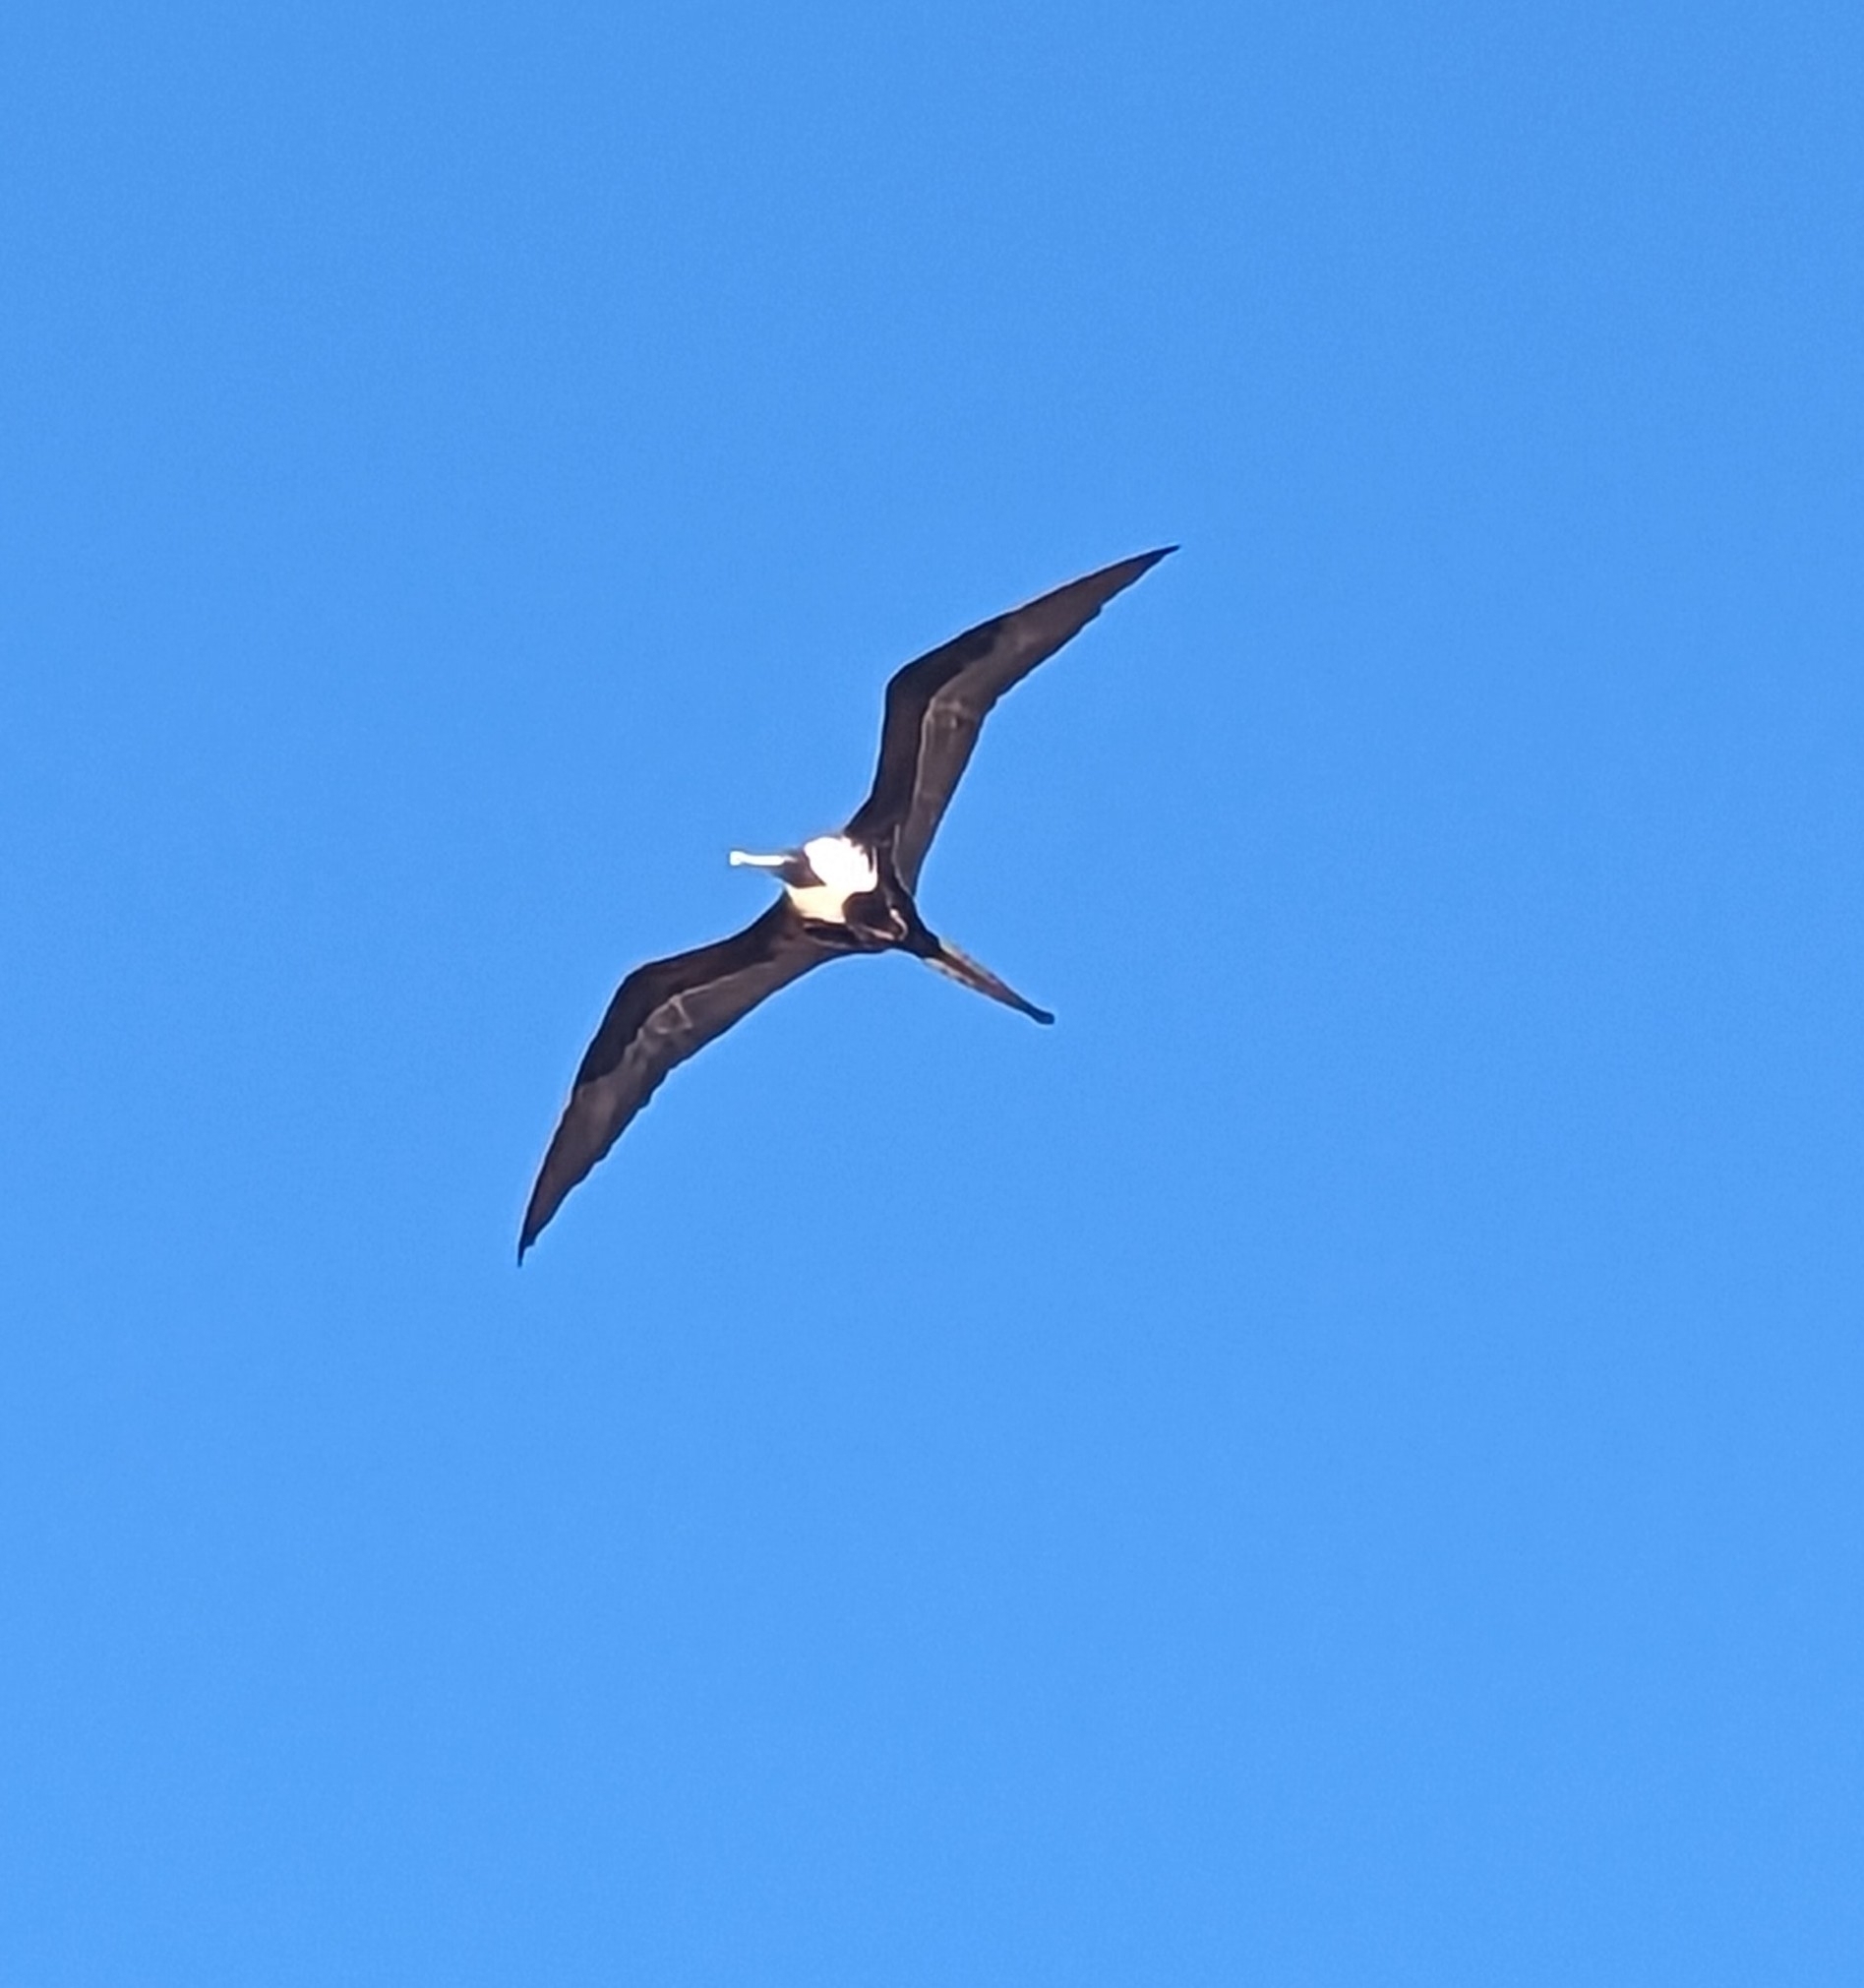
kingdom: Animalia
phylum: Chordata
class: Aves
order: Suliformes
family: Fregatidae
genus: Fregata
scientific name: Fregata magnificens
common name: Magnificent frigatebird
